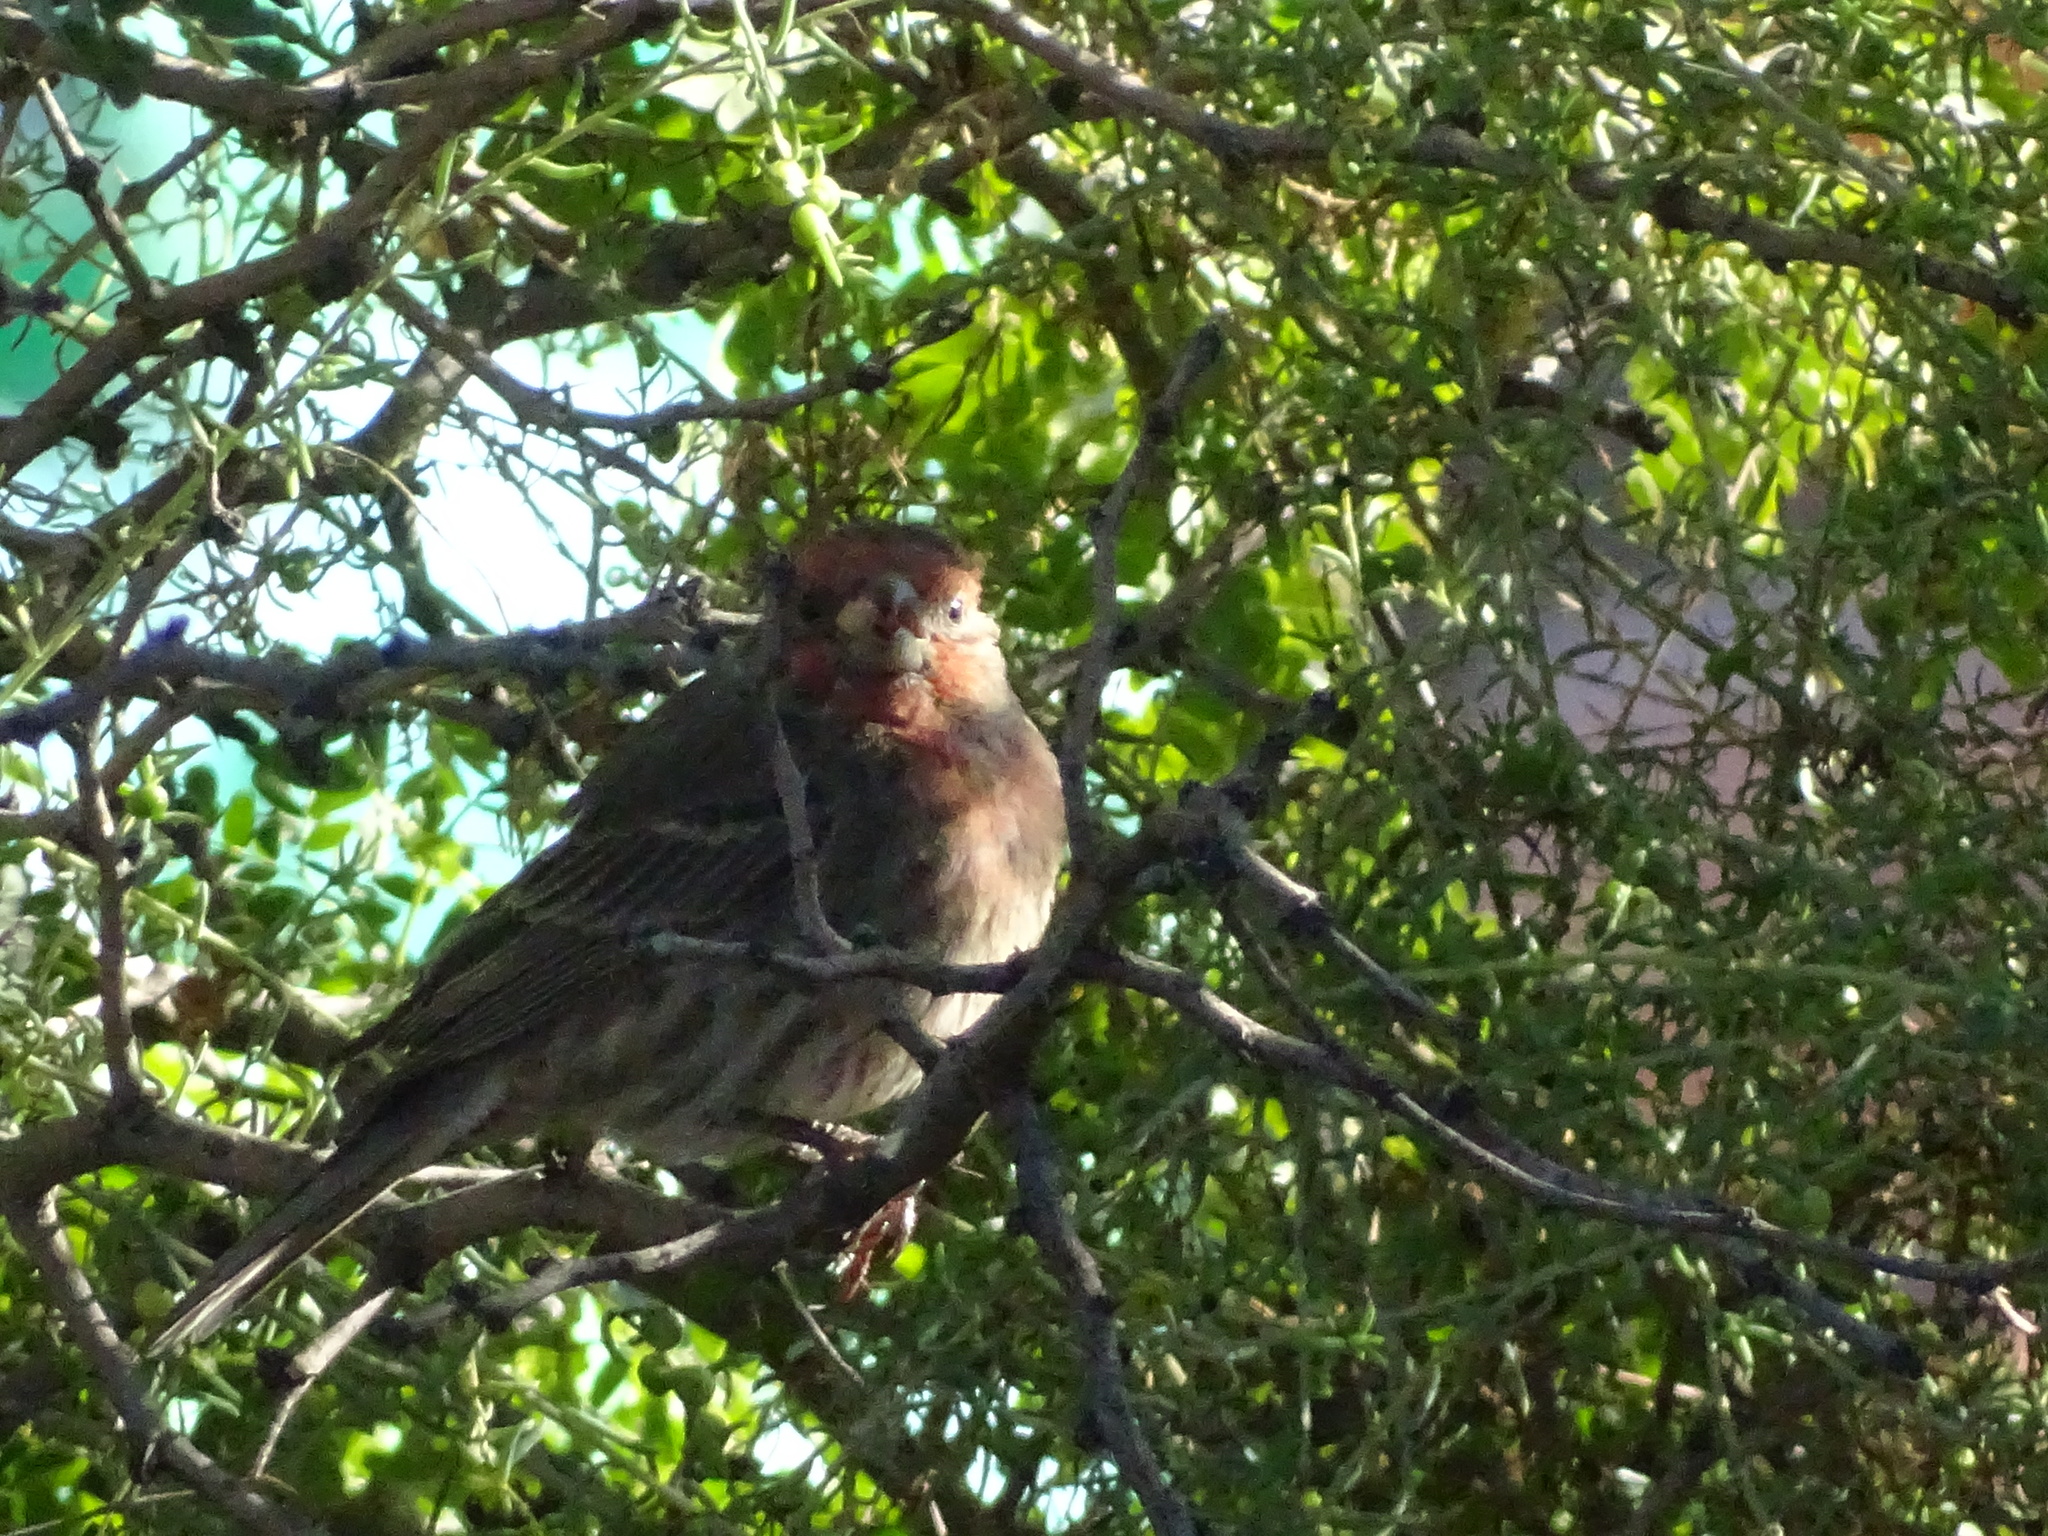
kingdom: Animalia
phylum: Chordata
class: Aves
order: Passeriformes
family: Fringillidae
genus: Haemorhous
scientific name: Haemorhous mexicanus
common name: House finch
